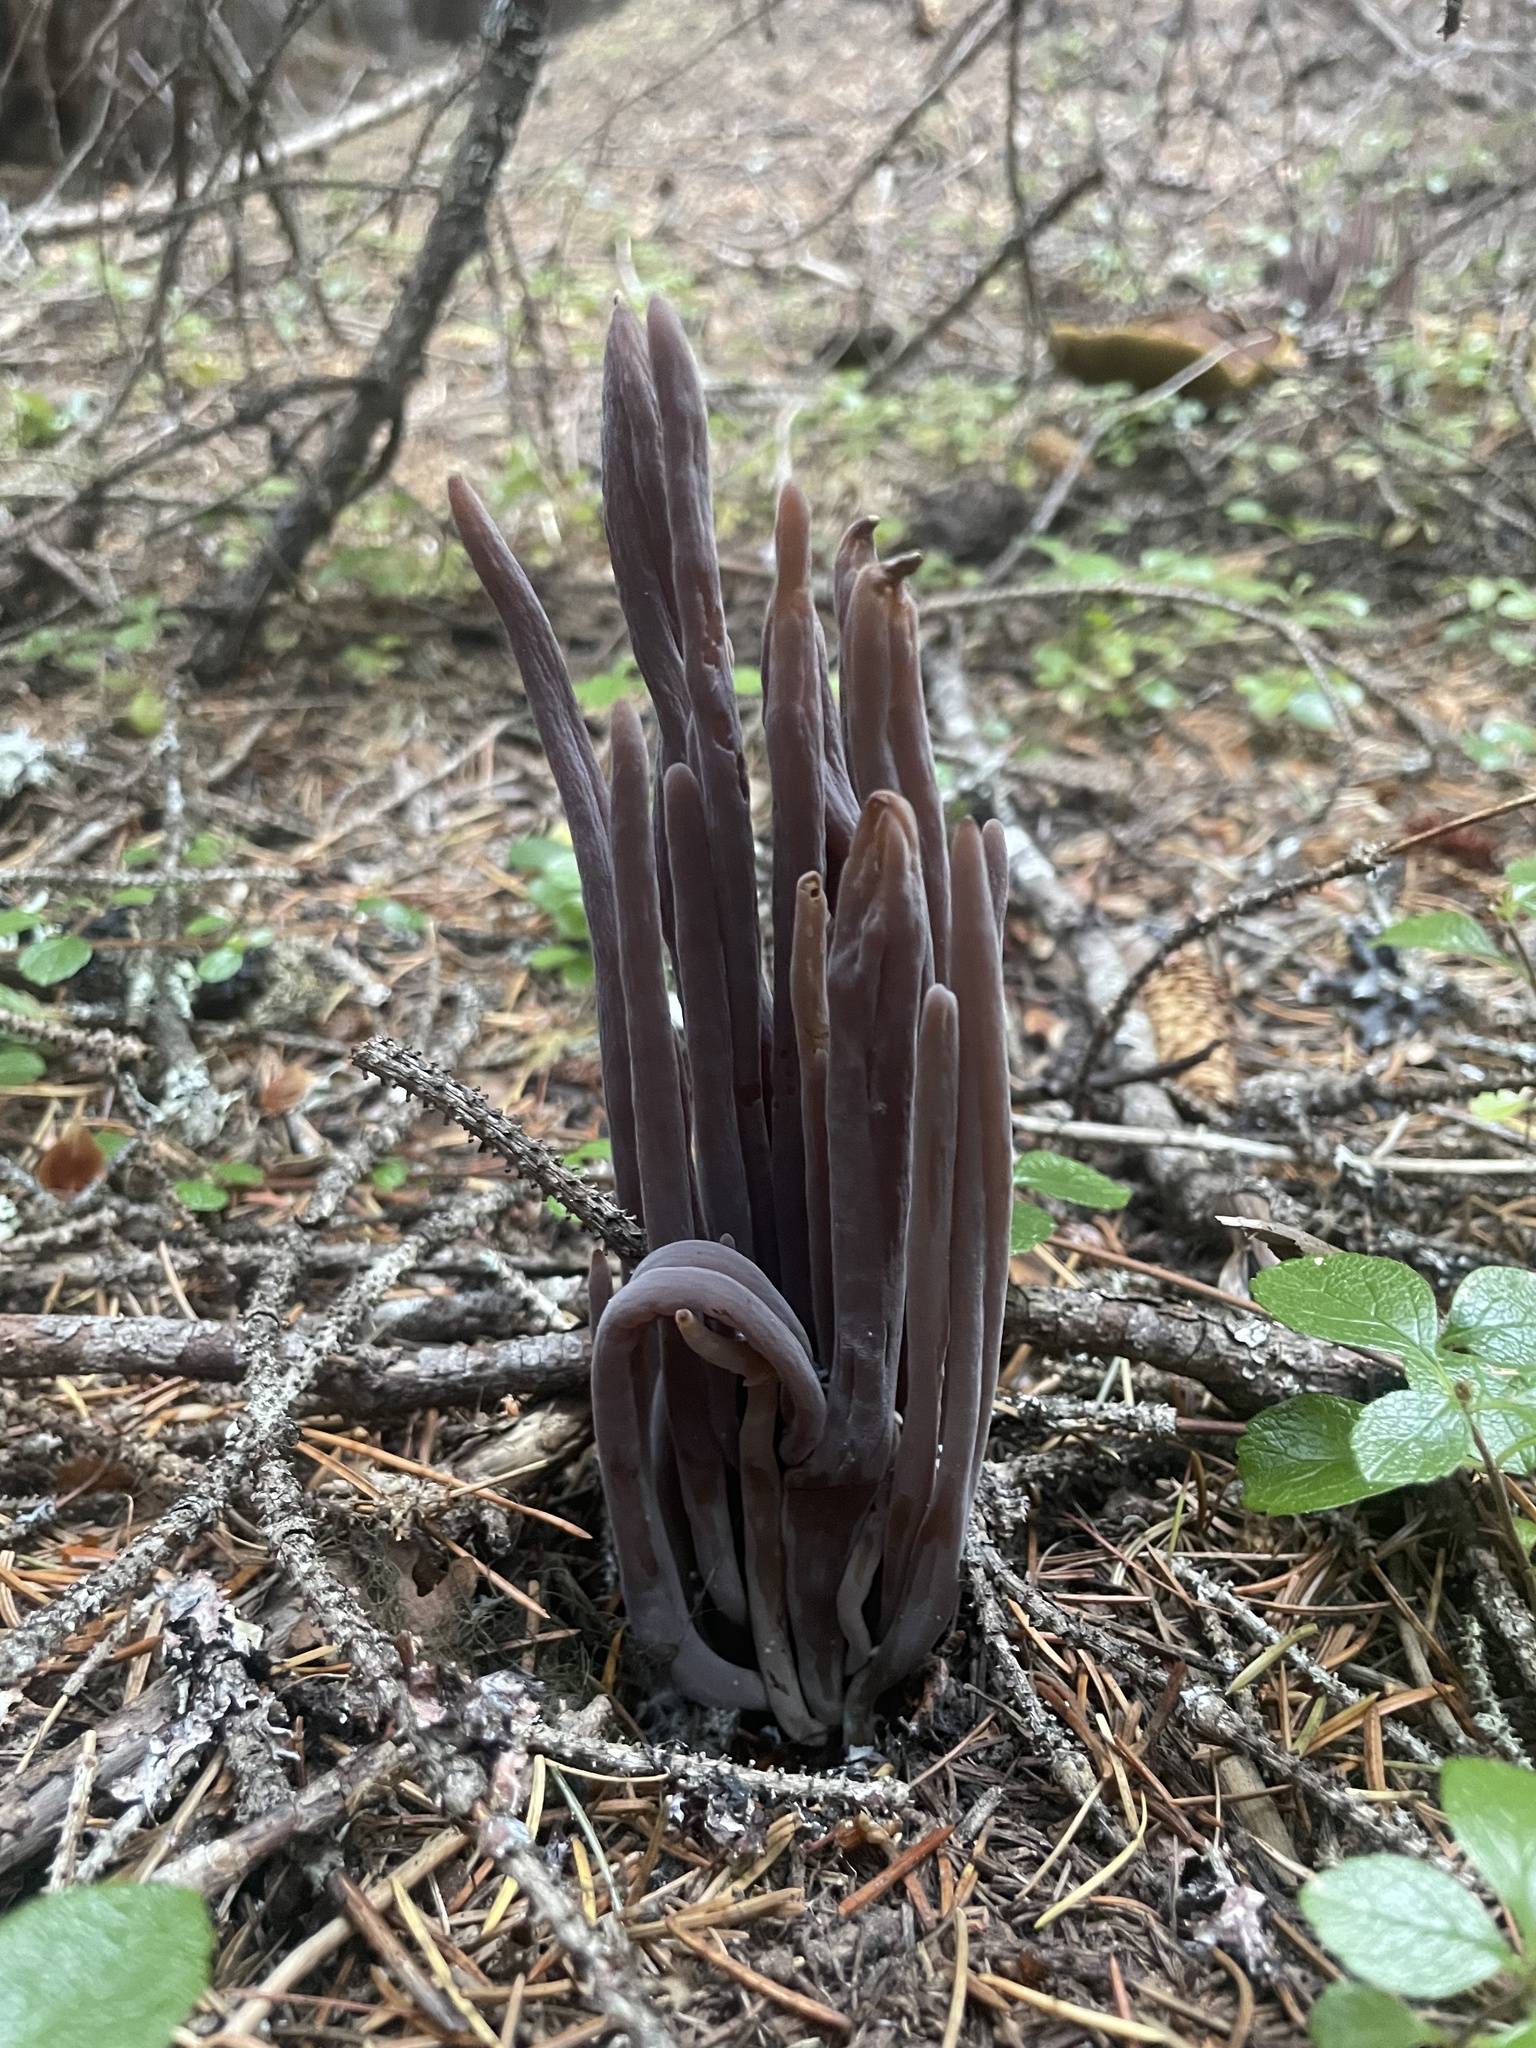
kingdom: Fungi
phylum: Basidiomycota
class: Agaricomycetes
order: Hymenochaetales
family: Rickenellaceae
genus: Alloclavaria
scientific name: Alloclavaria purpurea
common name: Purple spindles
